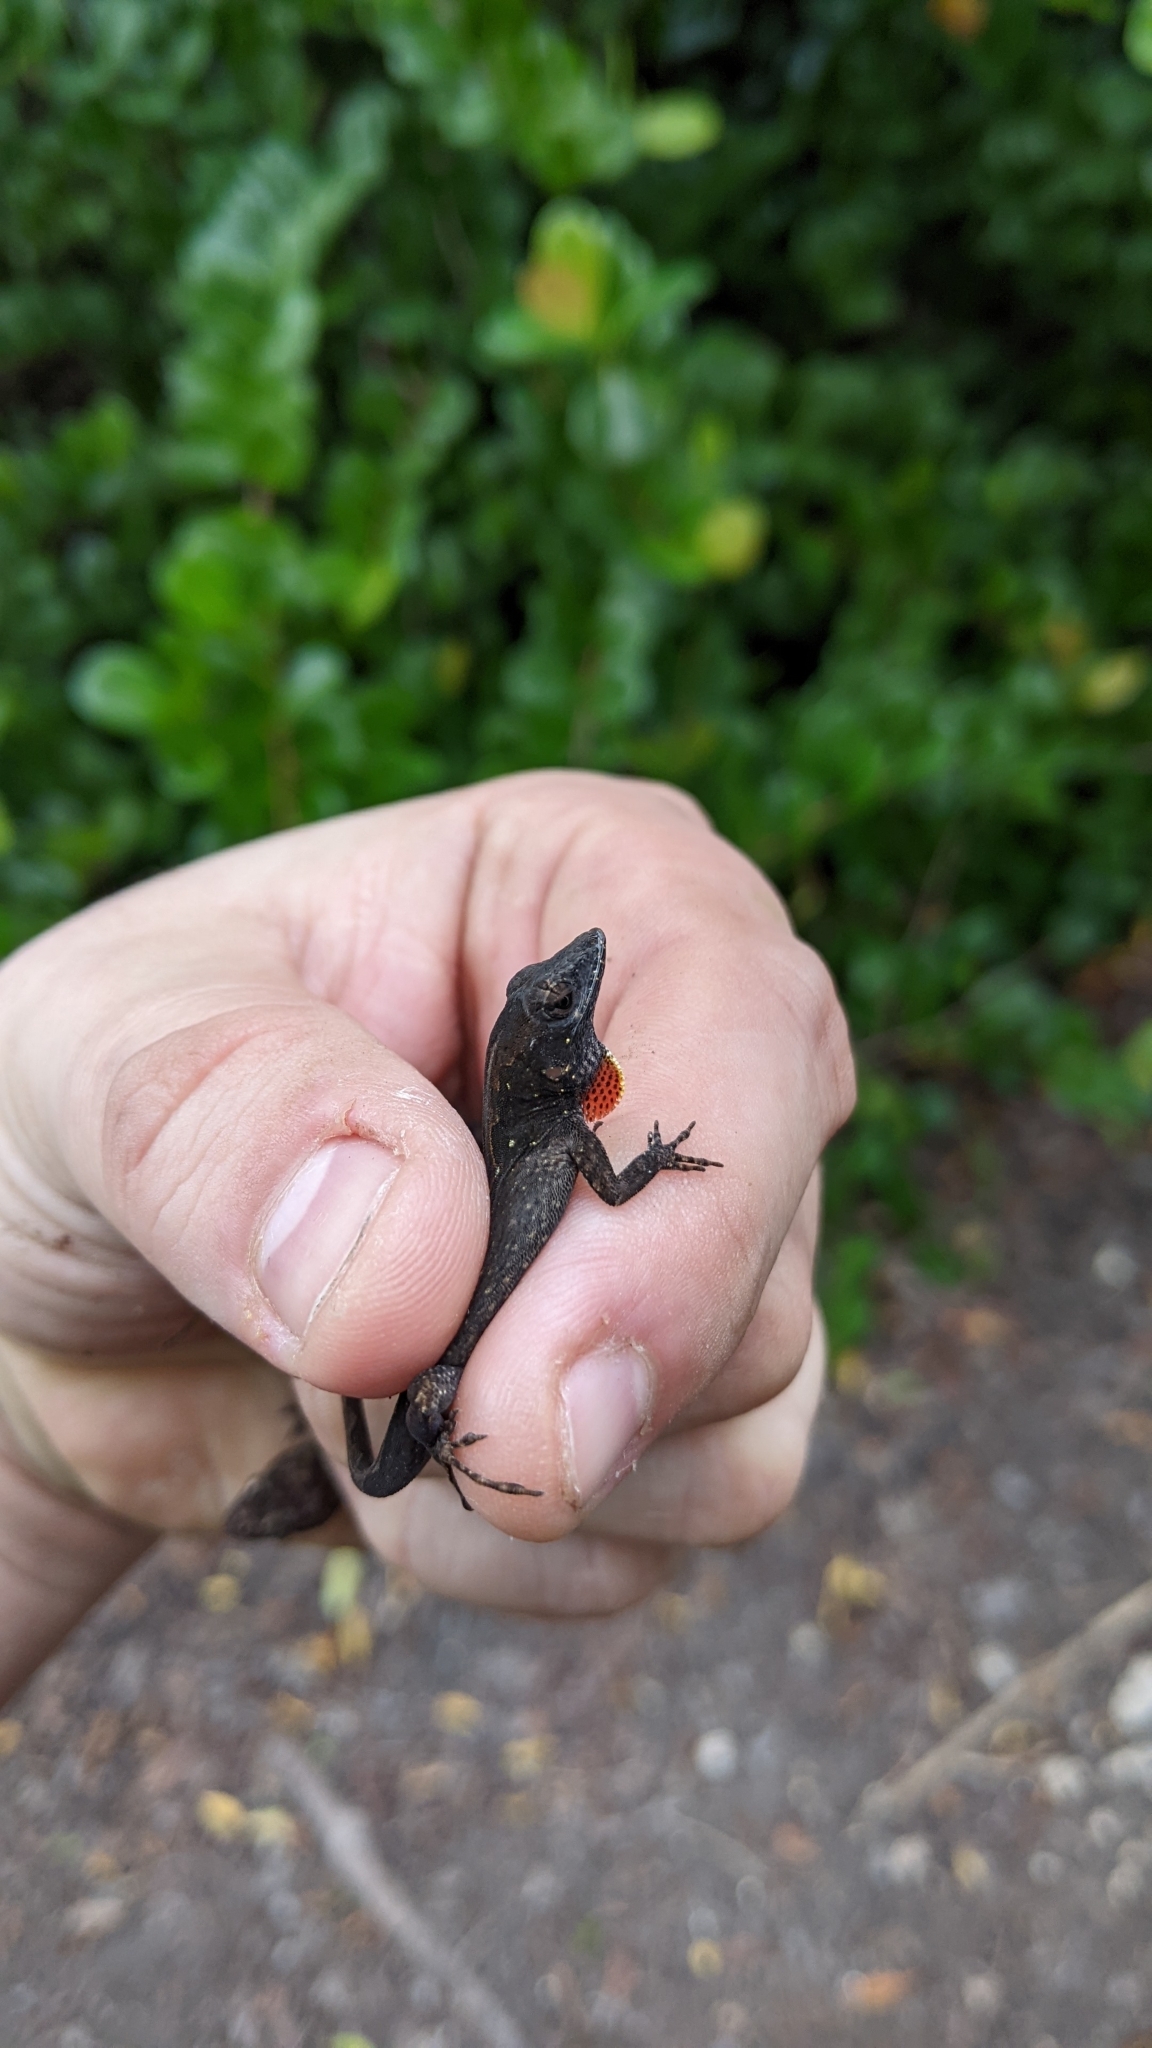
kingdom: Animalia
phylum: Chordata
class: Squamata
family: Dactyloidae
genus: Anolis
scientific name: Anolis sagrei
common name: Brown anole
